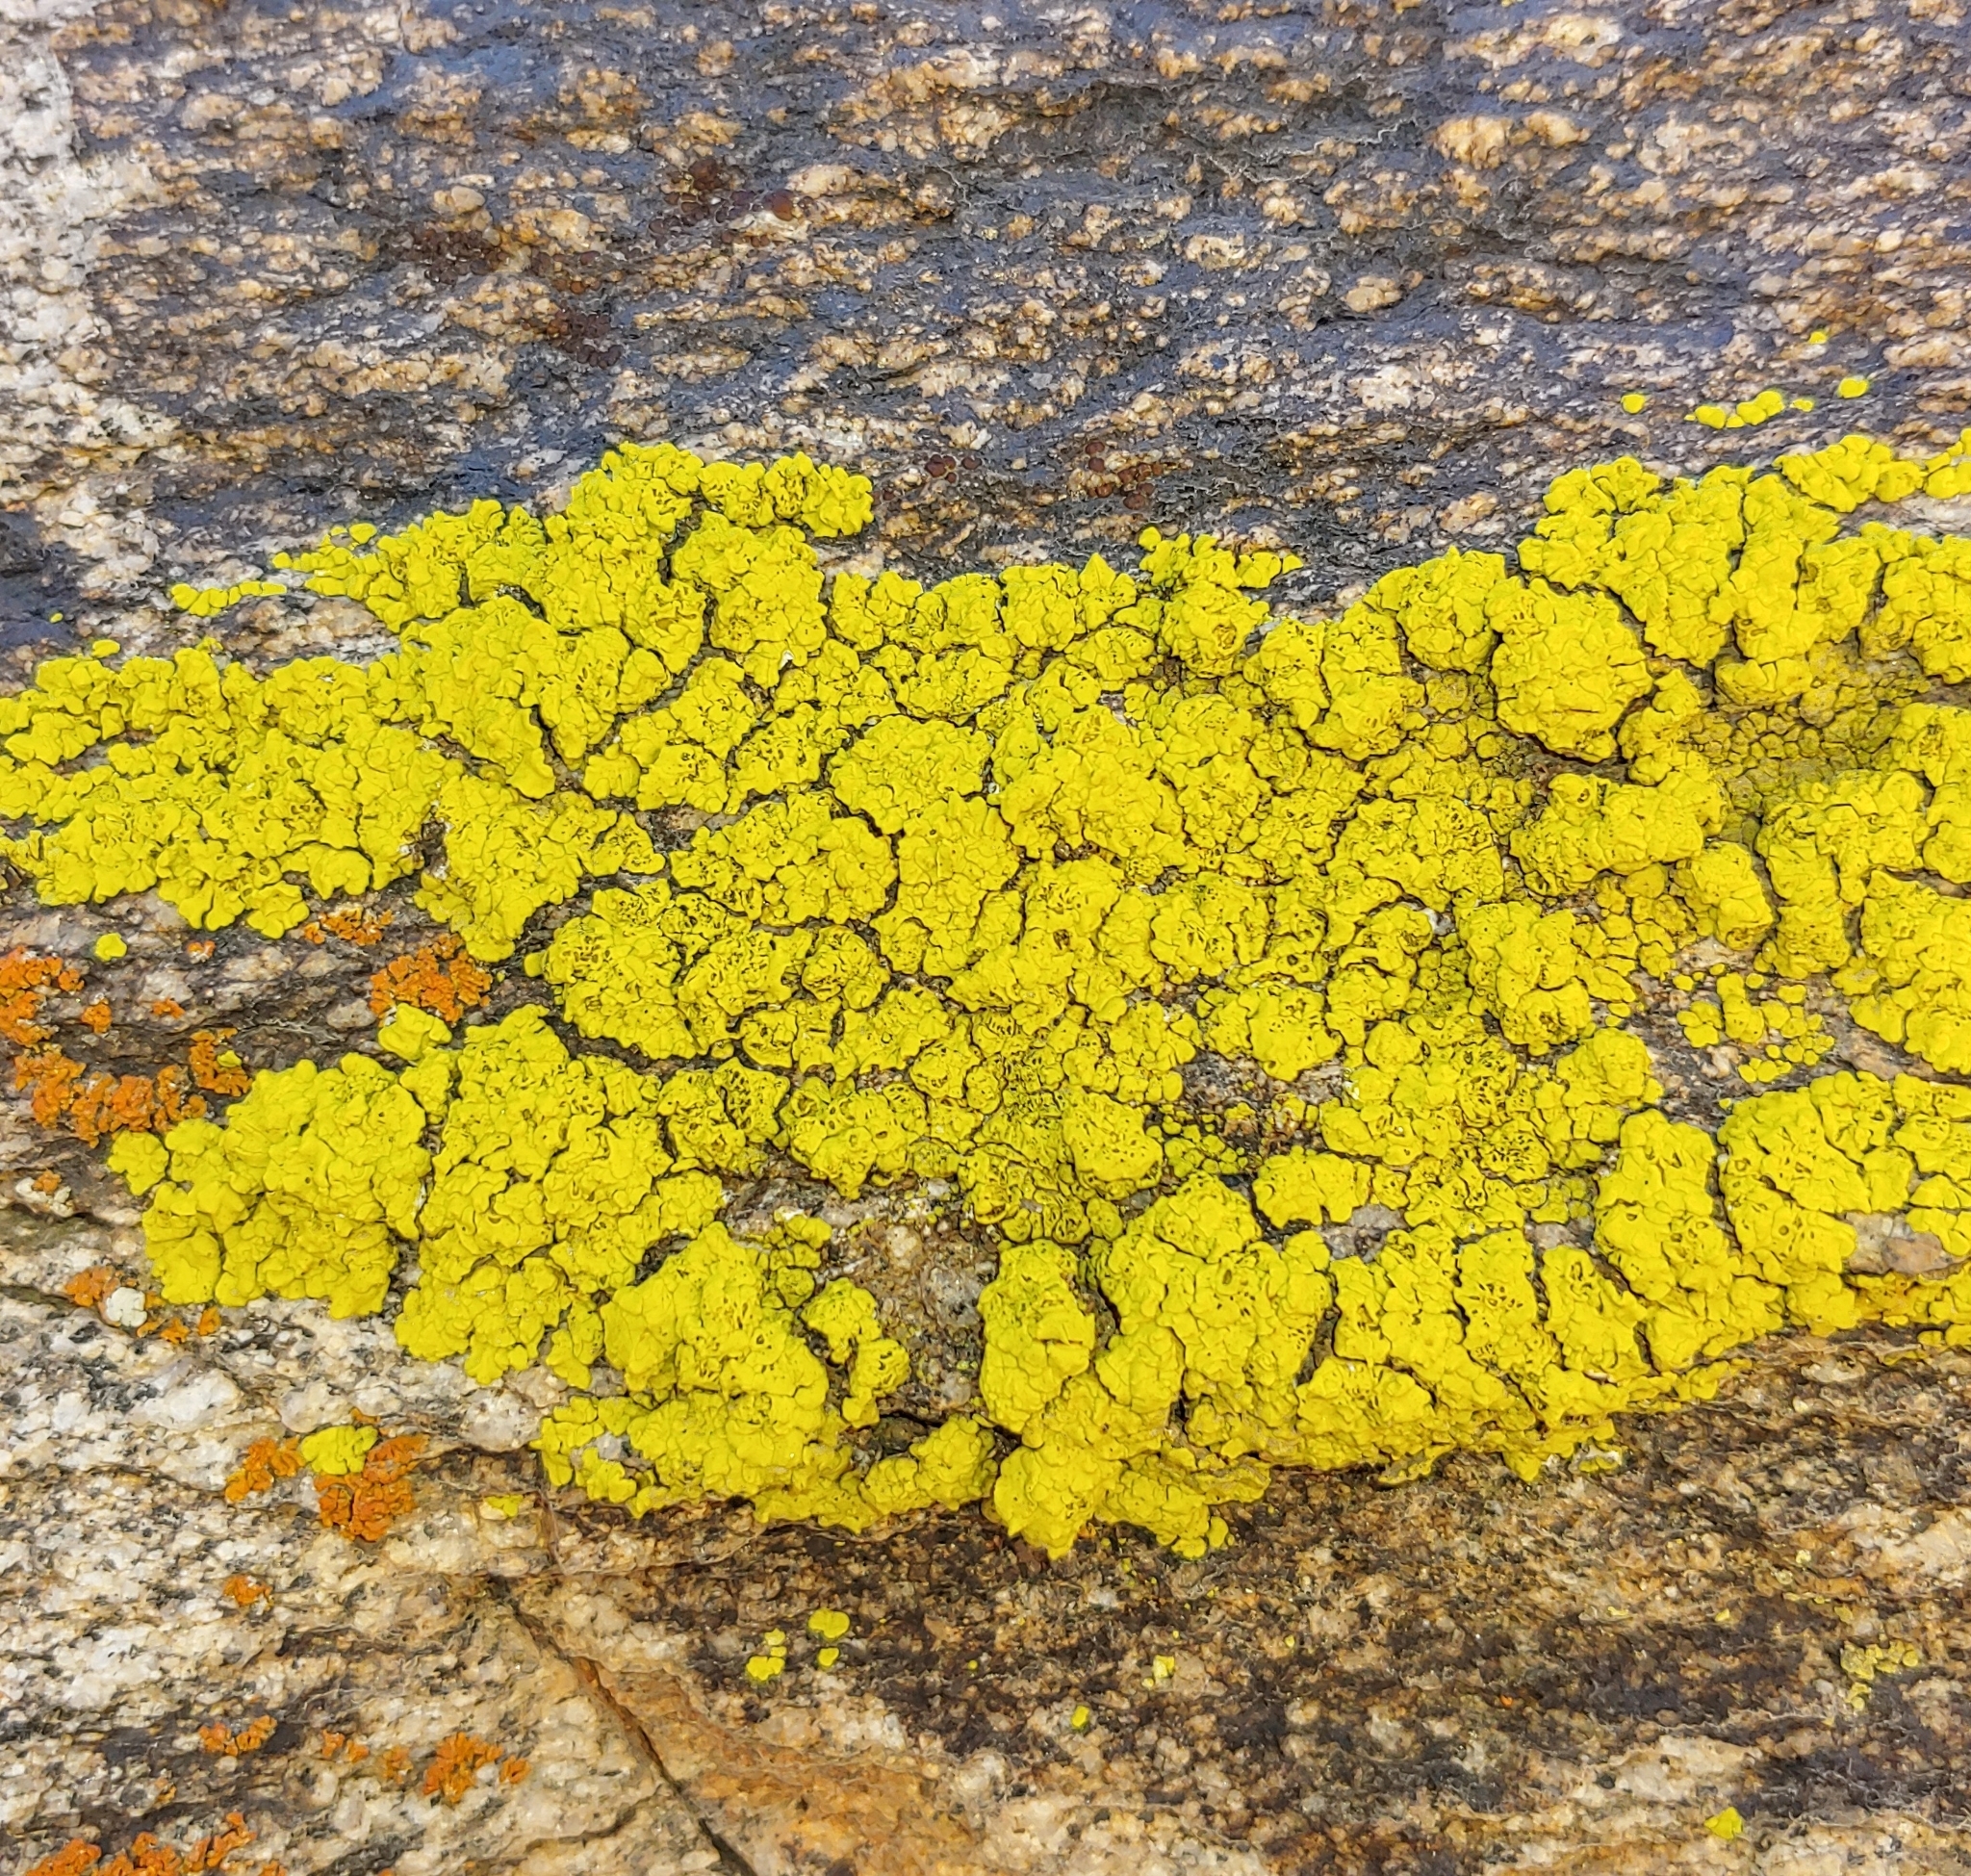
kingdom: Fungi
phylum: Ascomycota
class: Lecanoromycetes
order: Acarosporales
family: Acarosporaceae
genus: Acarospora
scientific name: Acarospora socialis
